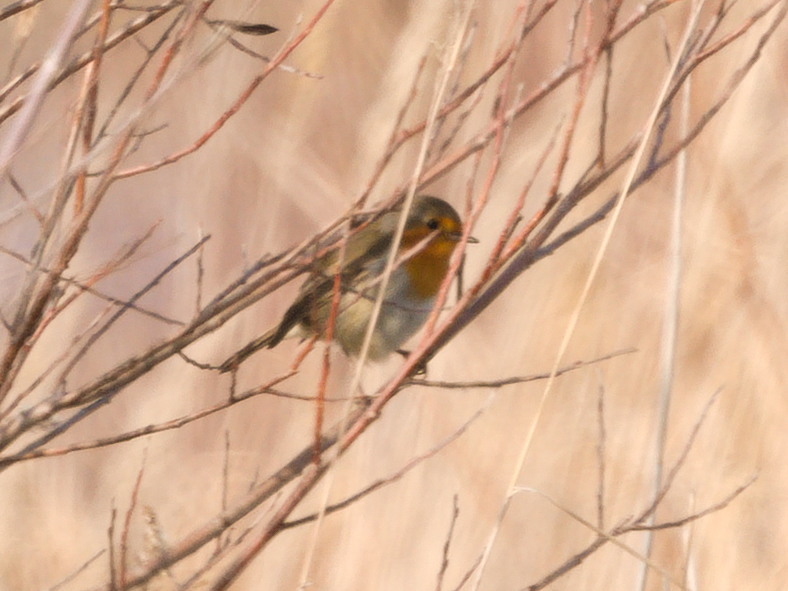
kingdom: Animalia
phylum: Chordata
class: Aves
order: Passeriformes
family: Muscicapidae
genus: Erithacus
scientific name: Erithacus rubecula
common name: European robin
